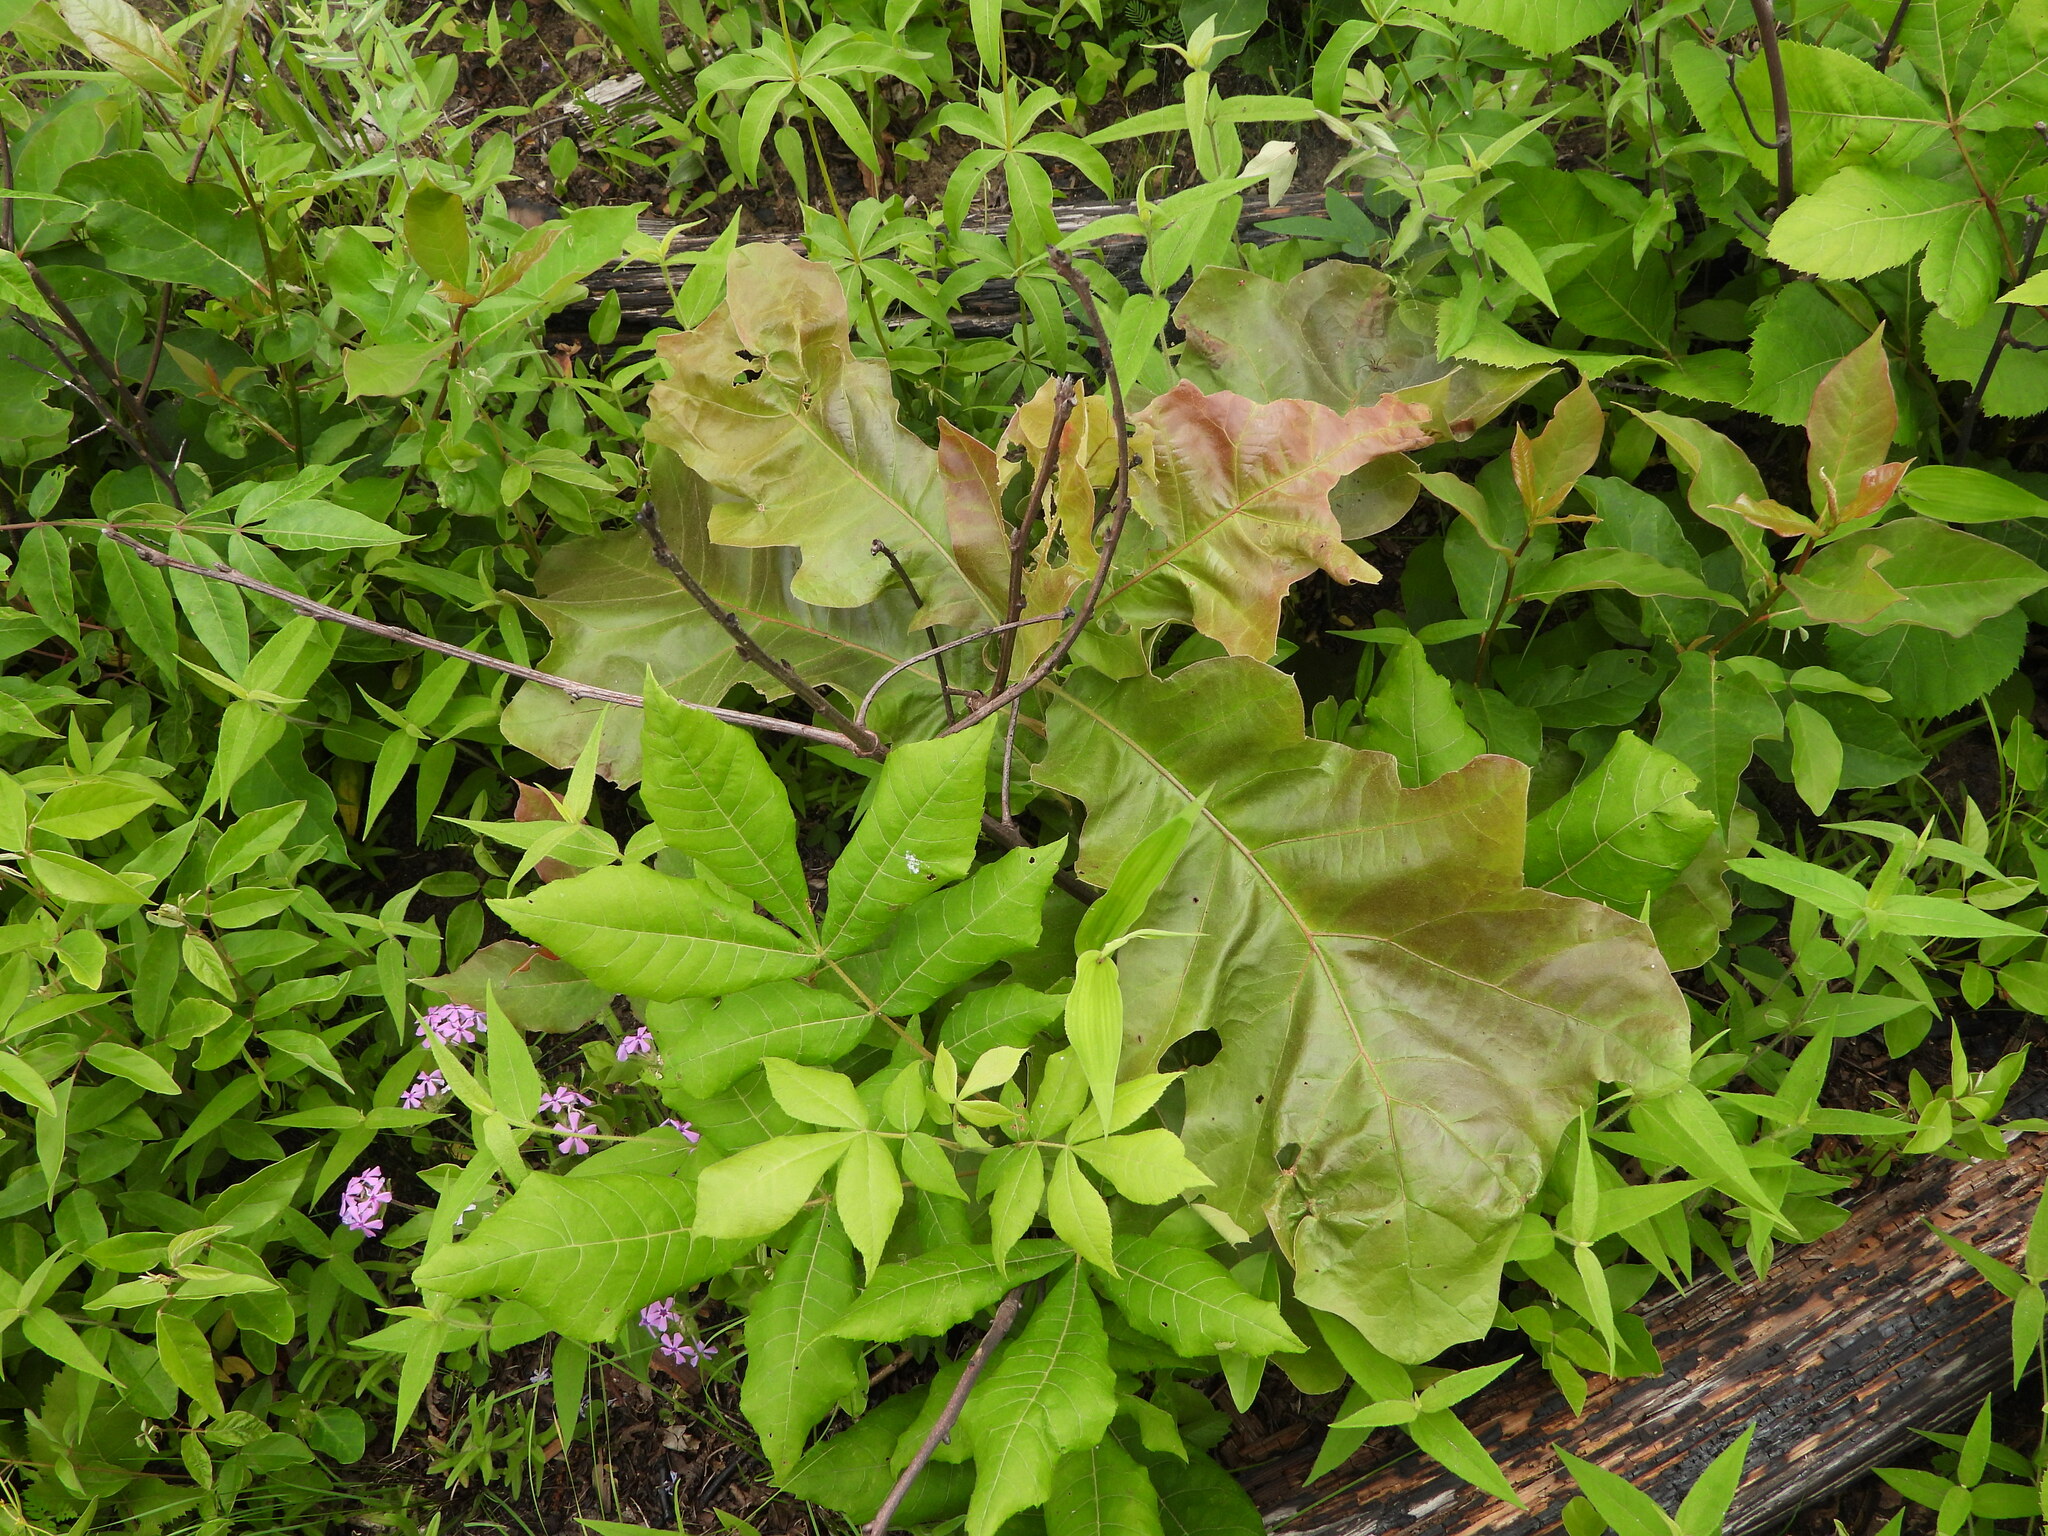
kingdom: Plantae
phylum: Tracheophyta
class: Magnoliopsida
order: Fagales
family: Fagaceae
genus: Quercus
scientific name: Quercus velutina
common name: Black oak
